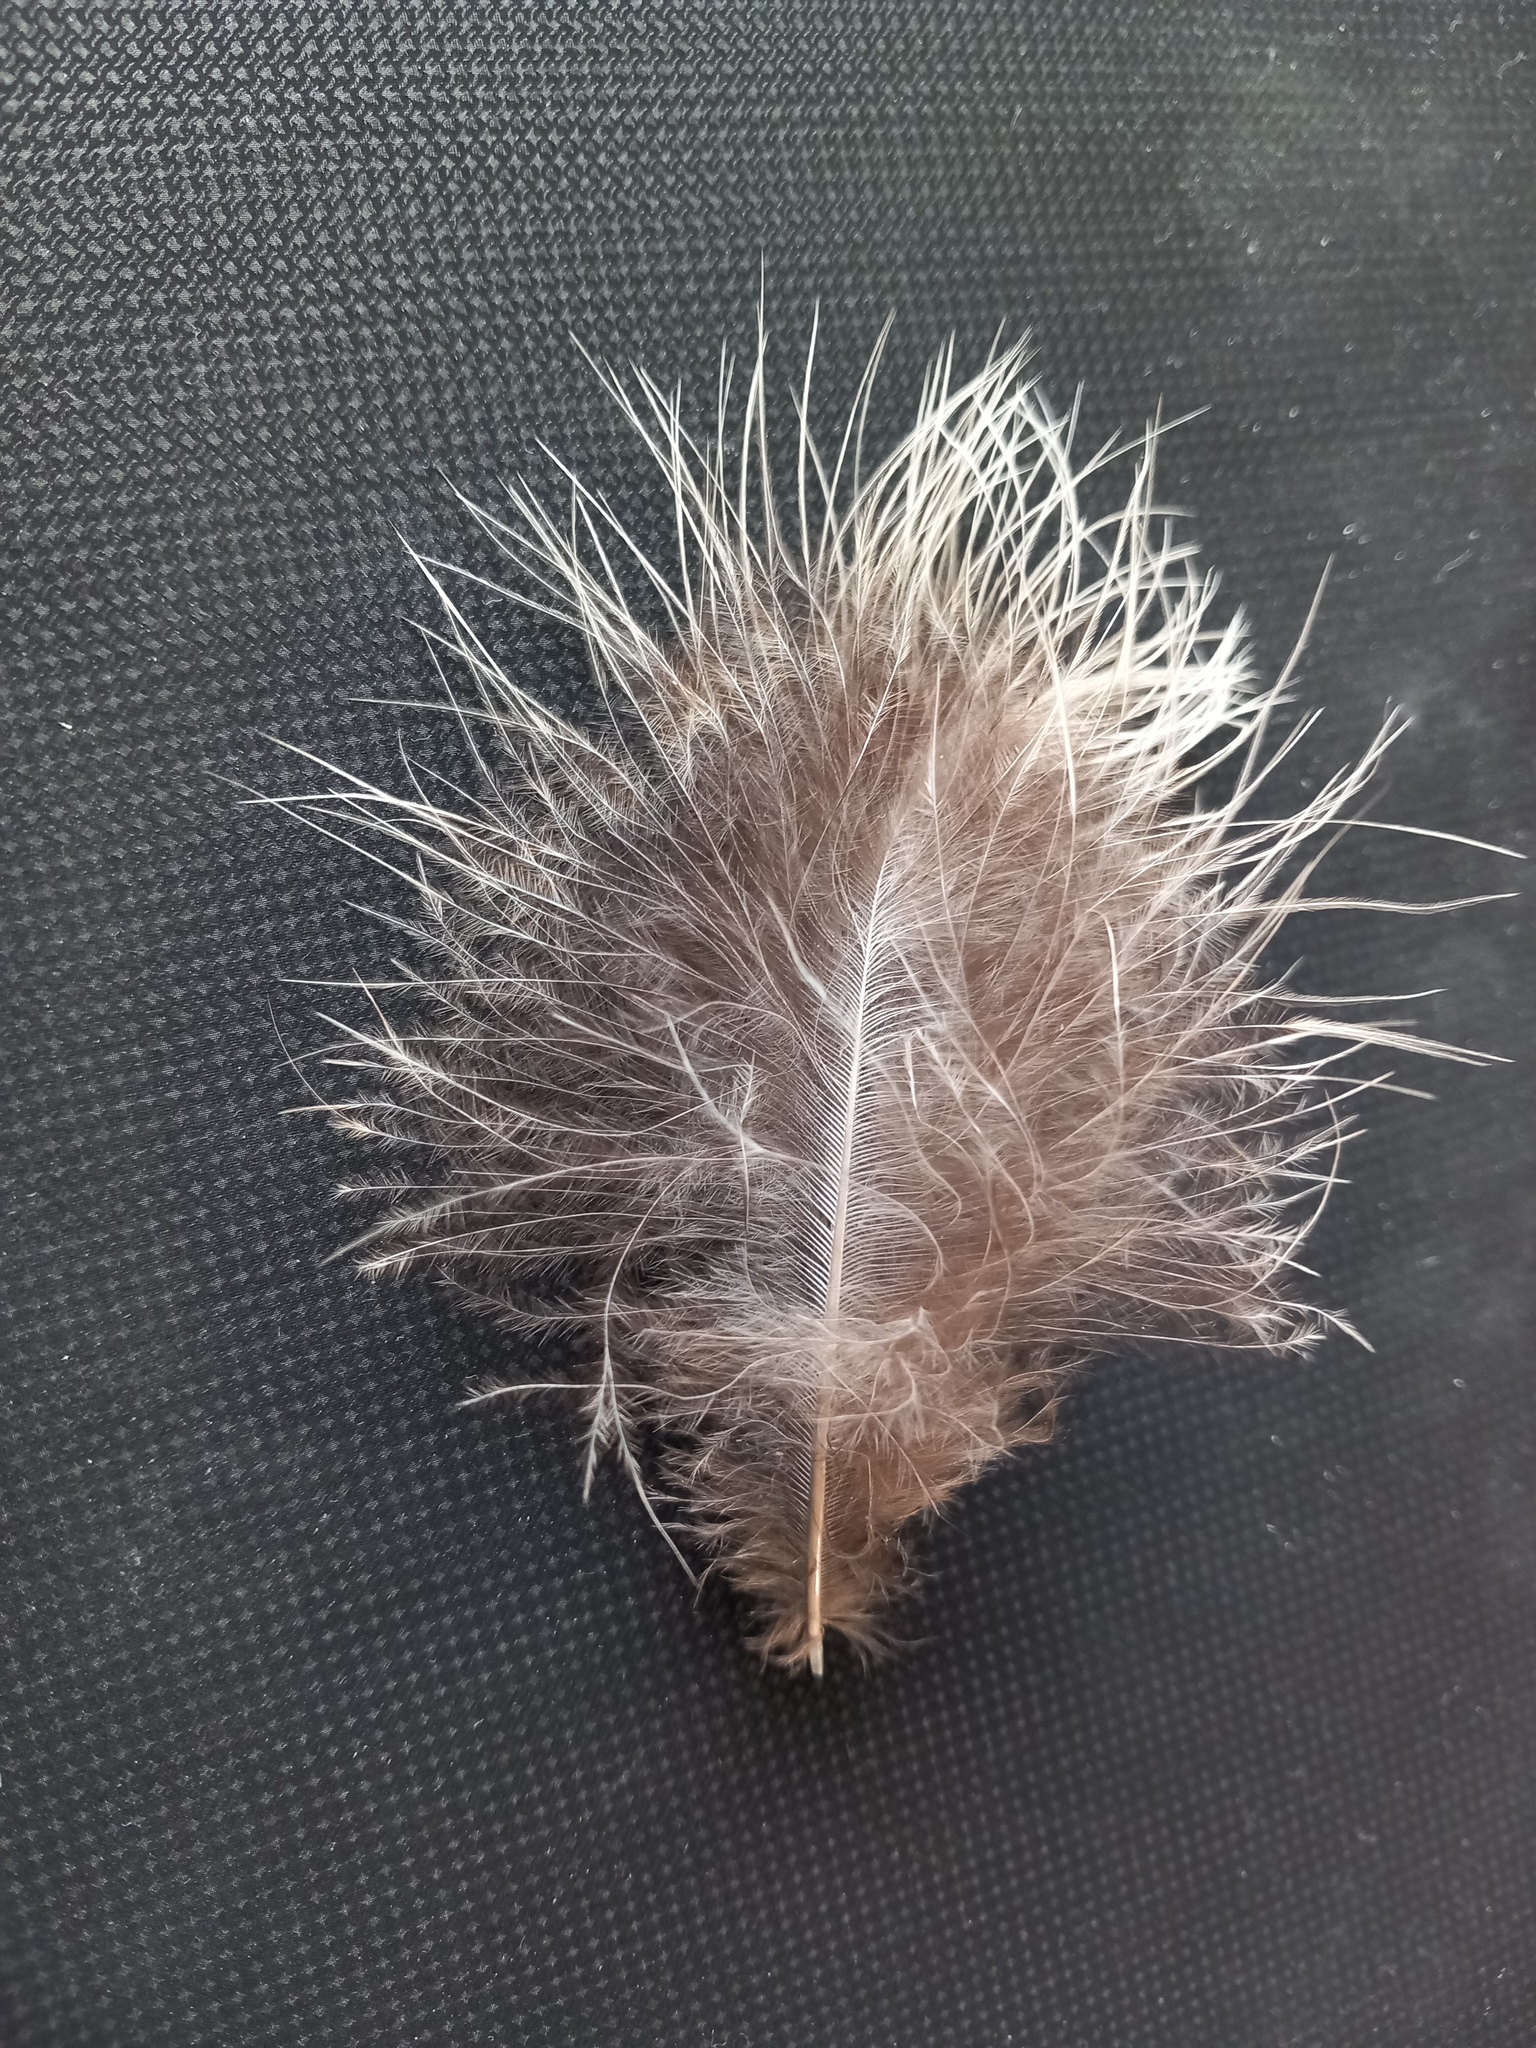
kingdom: Animalia
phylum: Chordata
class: Aves
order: Galliformes
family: Phasianidae
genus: Phasianus
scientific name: Phasianus colchicus
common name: Common pheasant
